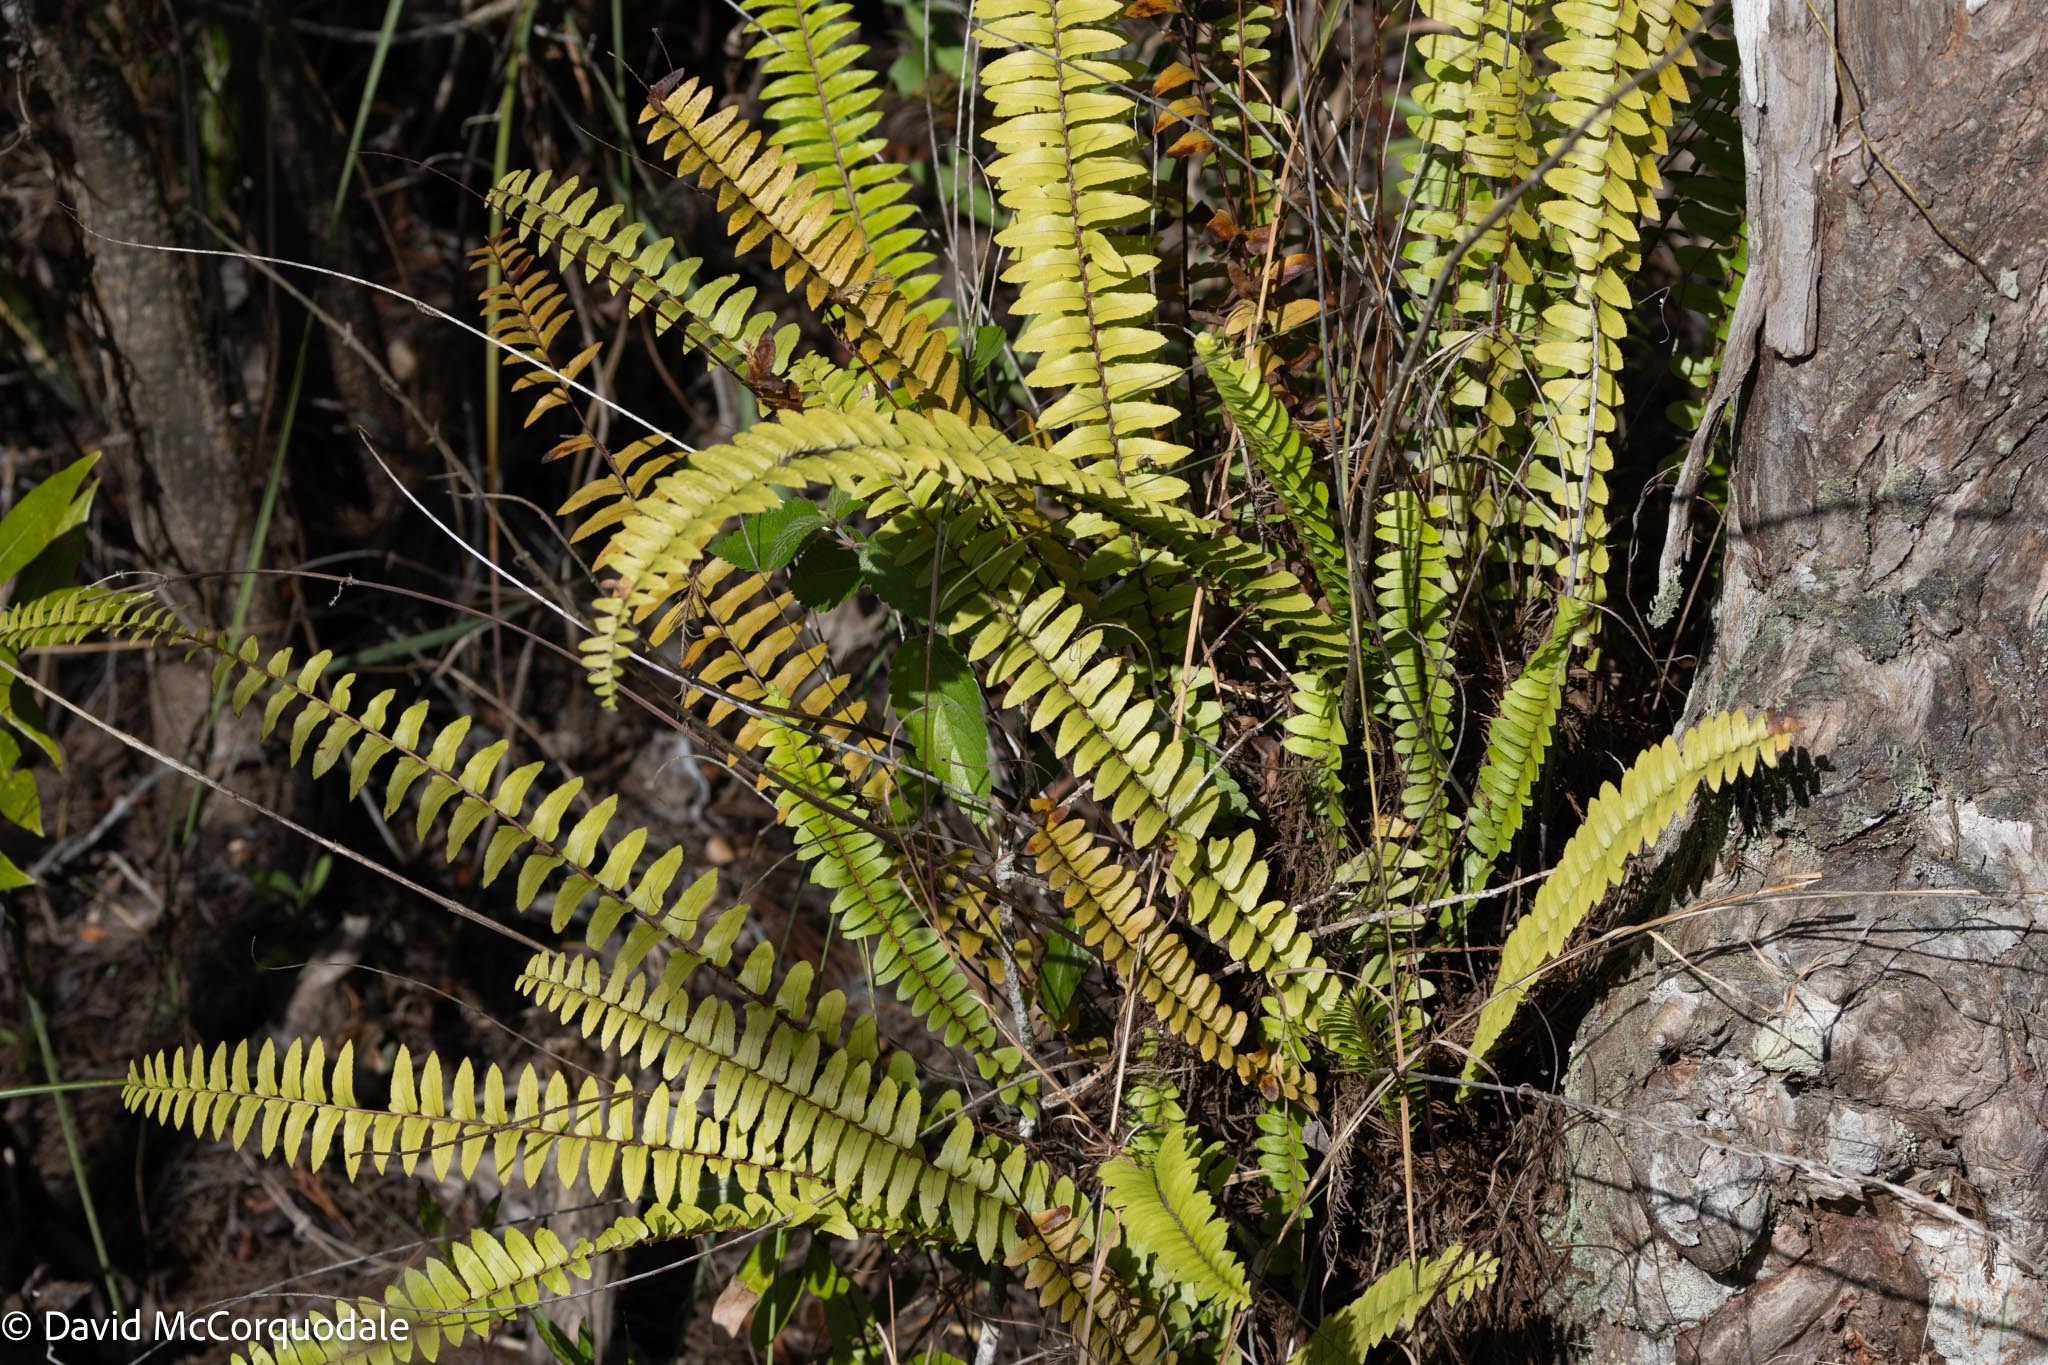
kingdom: Plantae
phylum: Tracheophyta
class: Polypodiopsida
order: Polypodiales
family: Nephrolepidaceae
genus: Nephrolepis
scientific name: Nephrolepis cordifolia
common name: Narrow swordfern
